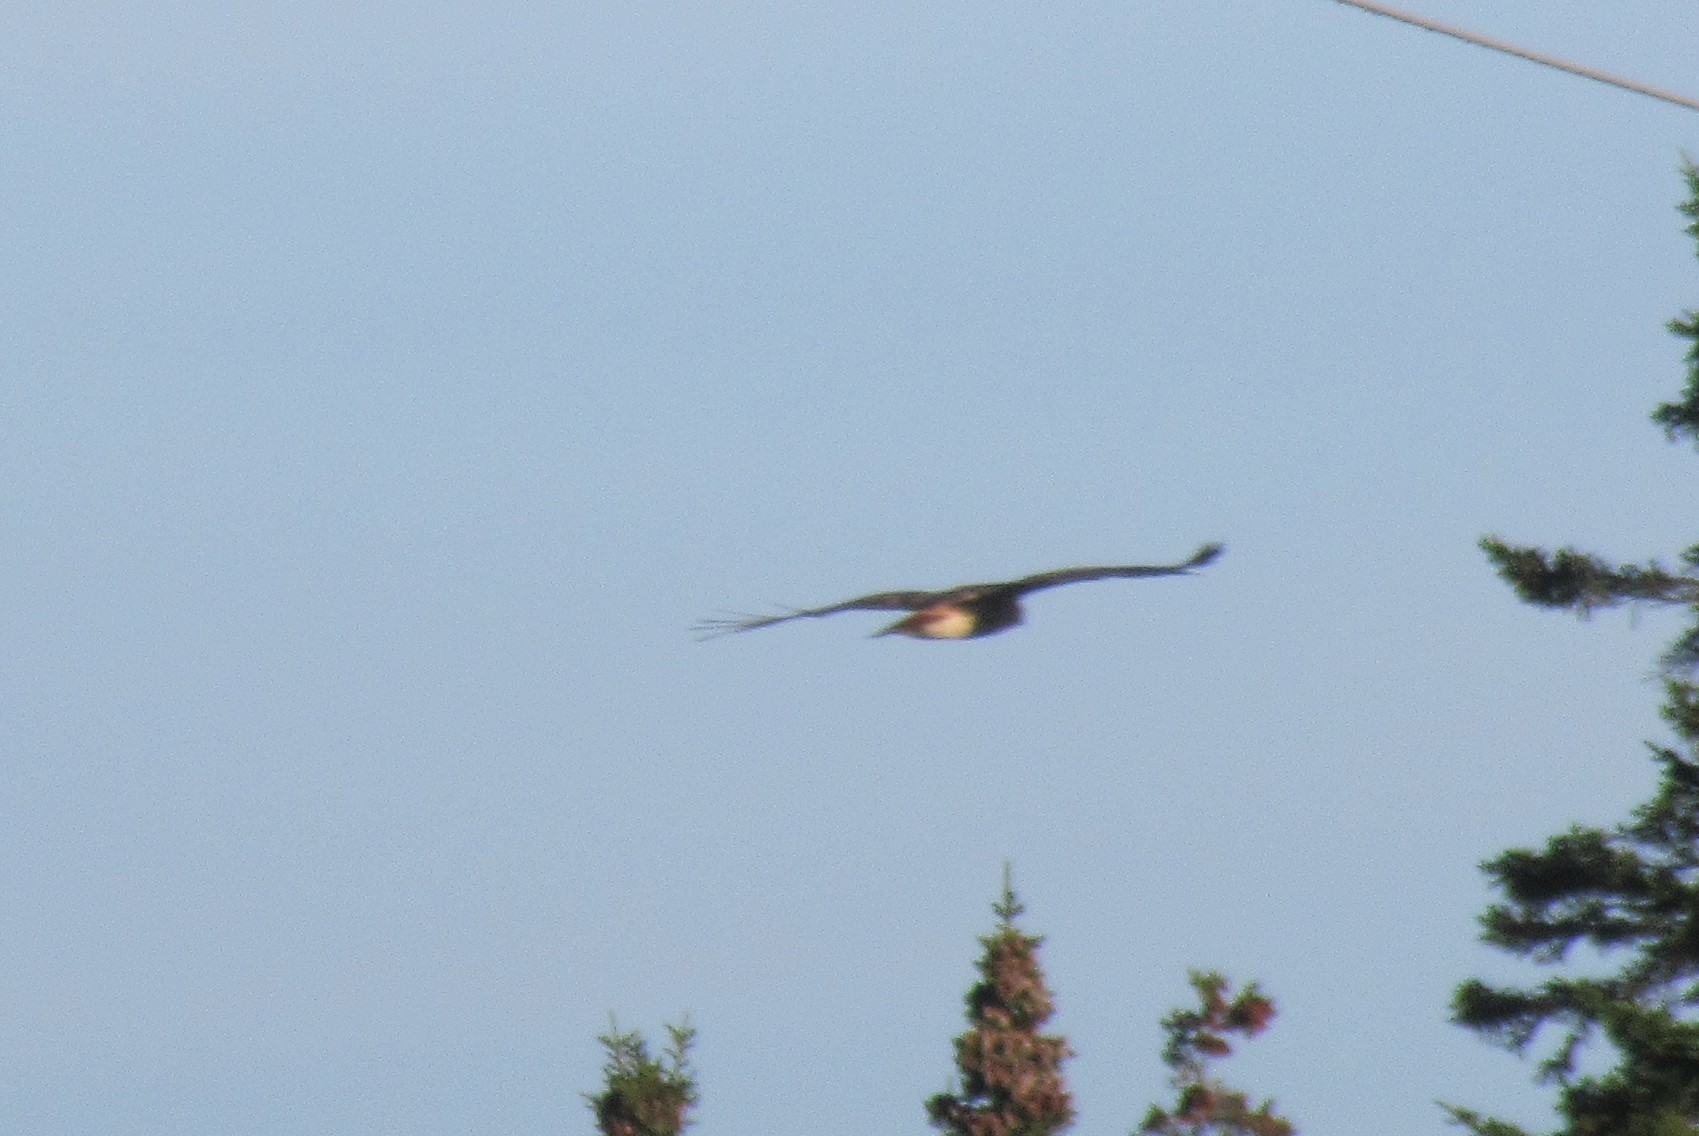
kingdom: Animalia
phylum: Chordata
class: Aves
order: Accipitriformes
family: Accipitridae
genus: Circus
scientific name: Circus cyaneus
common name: Hen harrier
